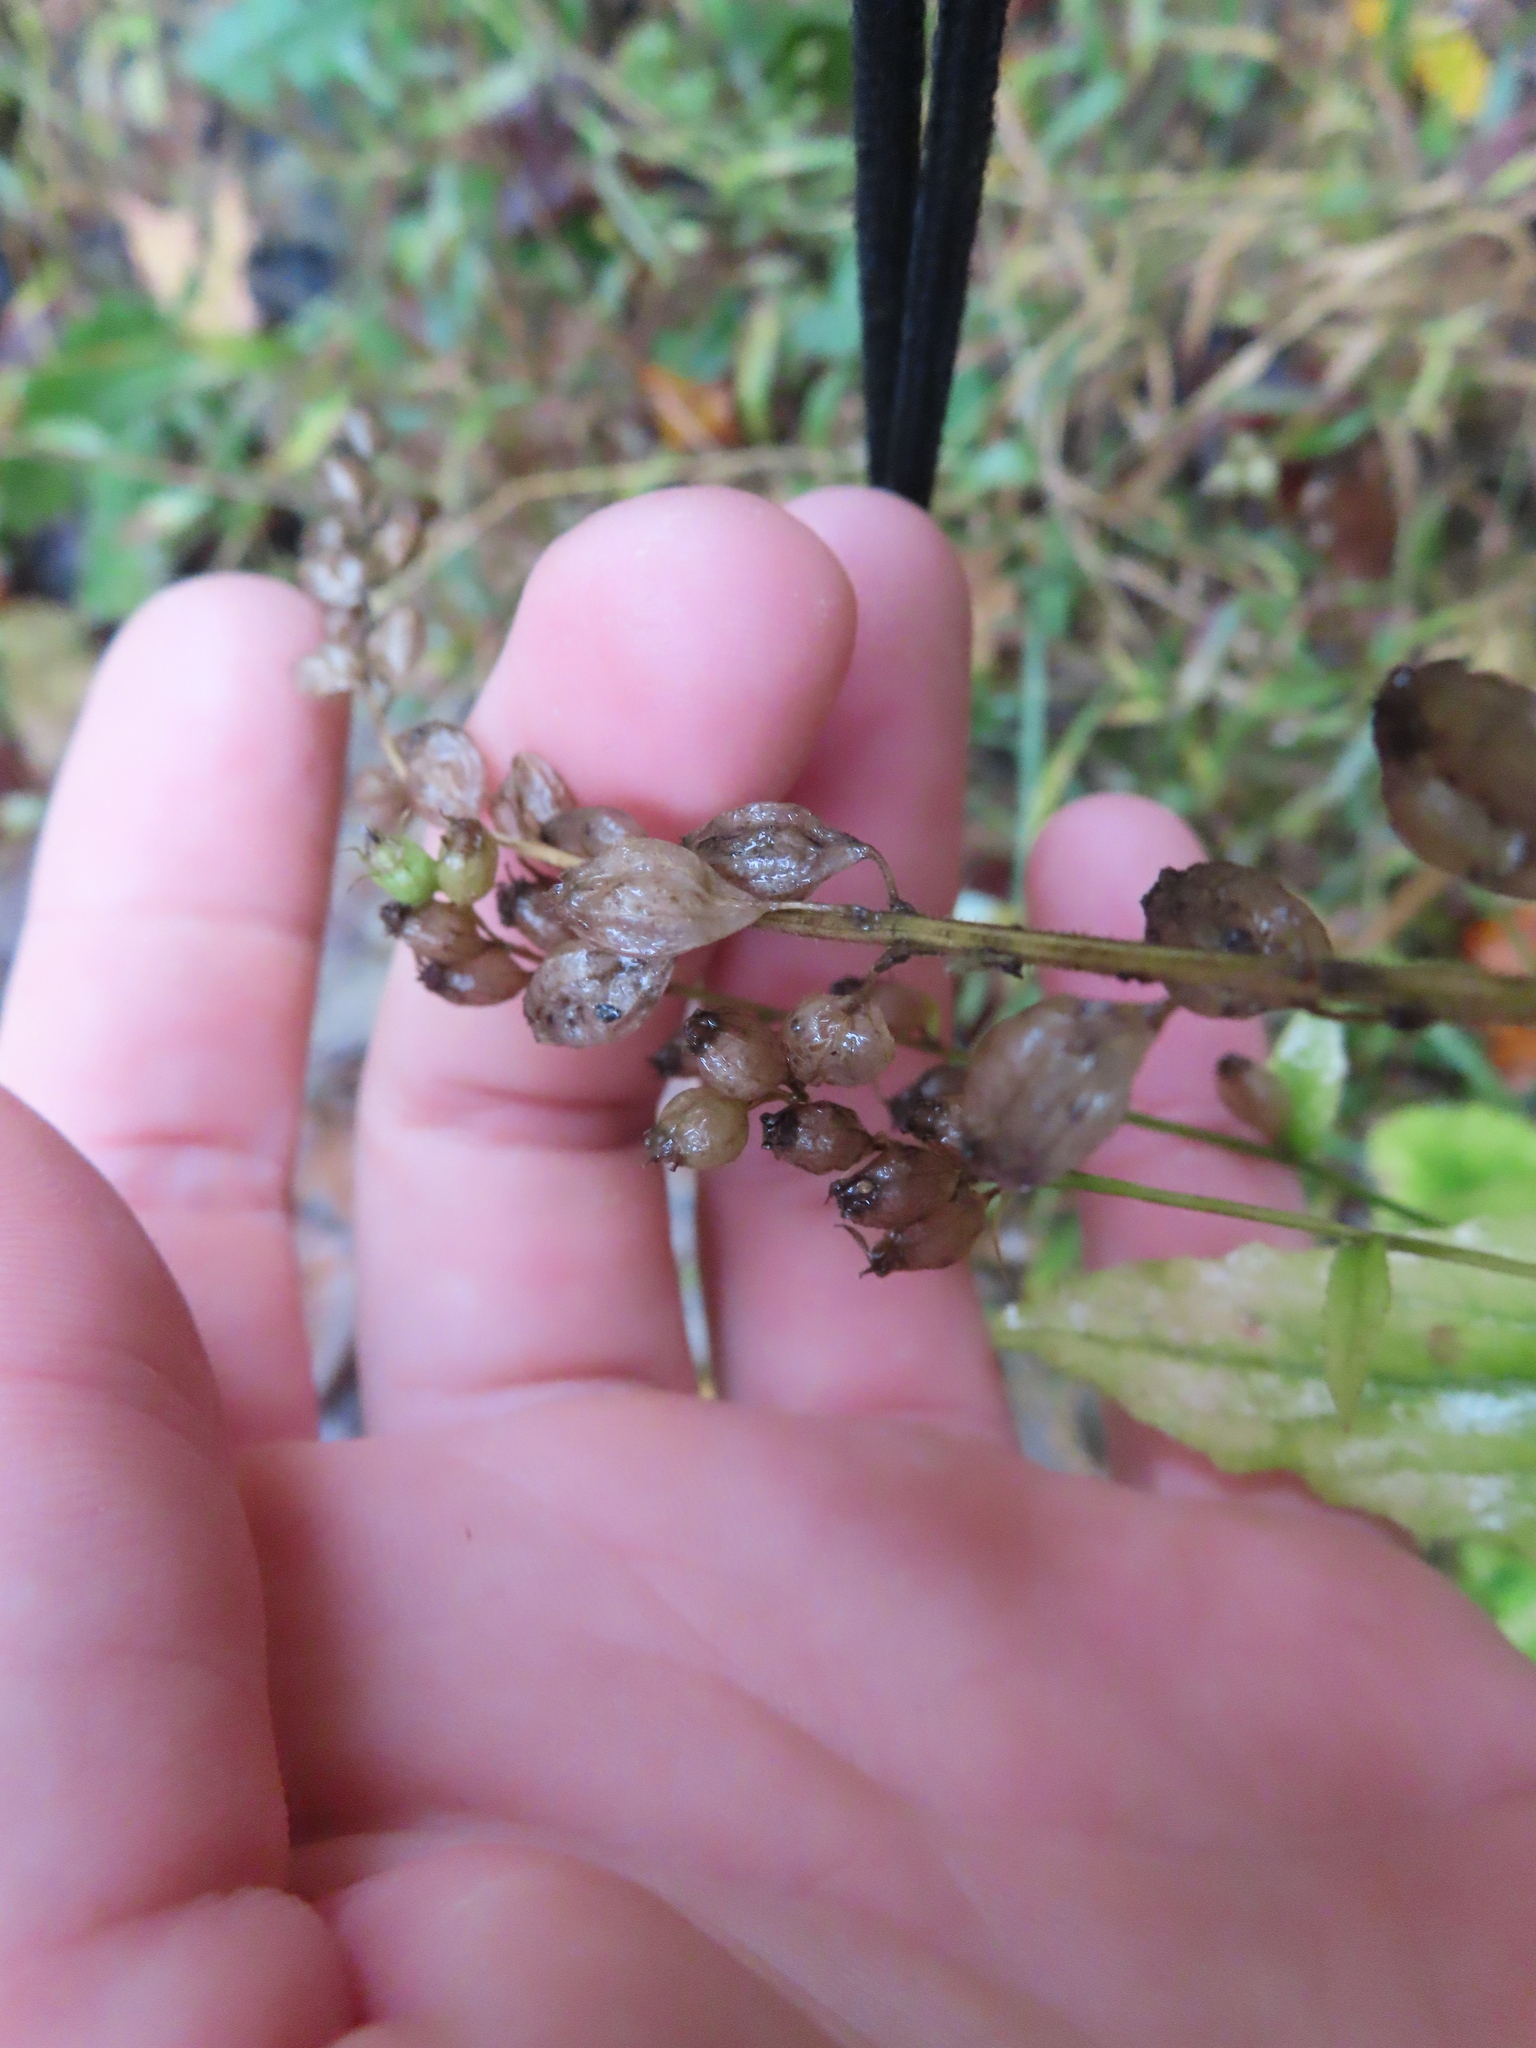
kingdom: Plantae
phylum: Tracheophyta
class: Magnoliopsida
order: Asterales
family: Campanulaceae
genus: Lobelia
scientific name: Lobelia inflata
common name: Indian tobacco
